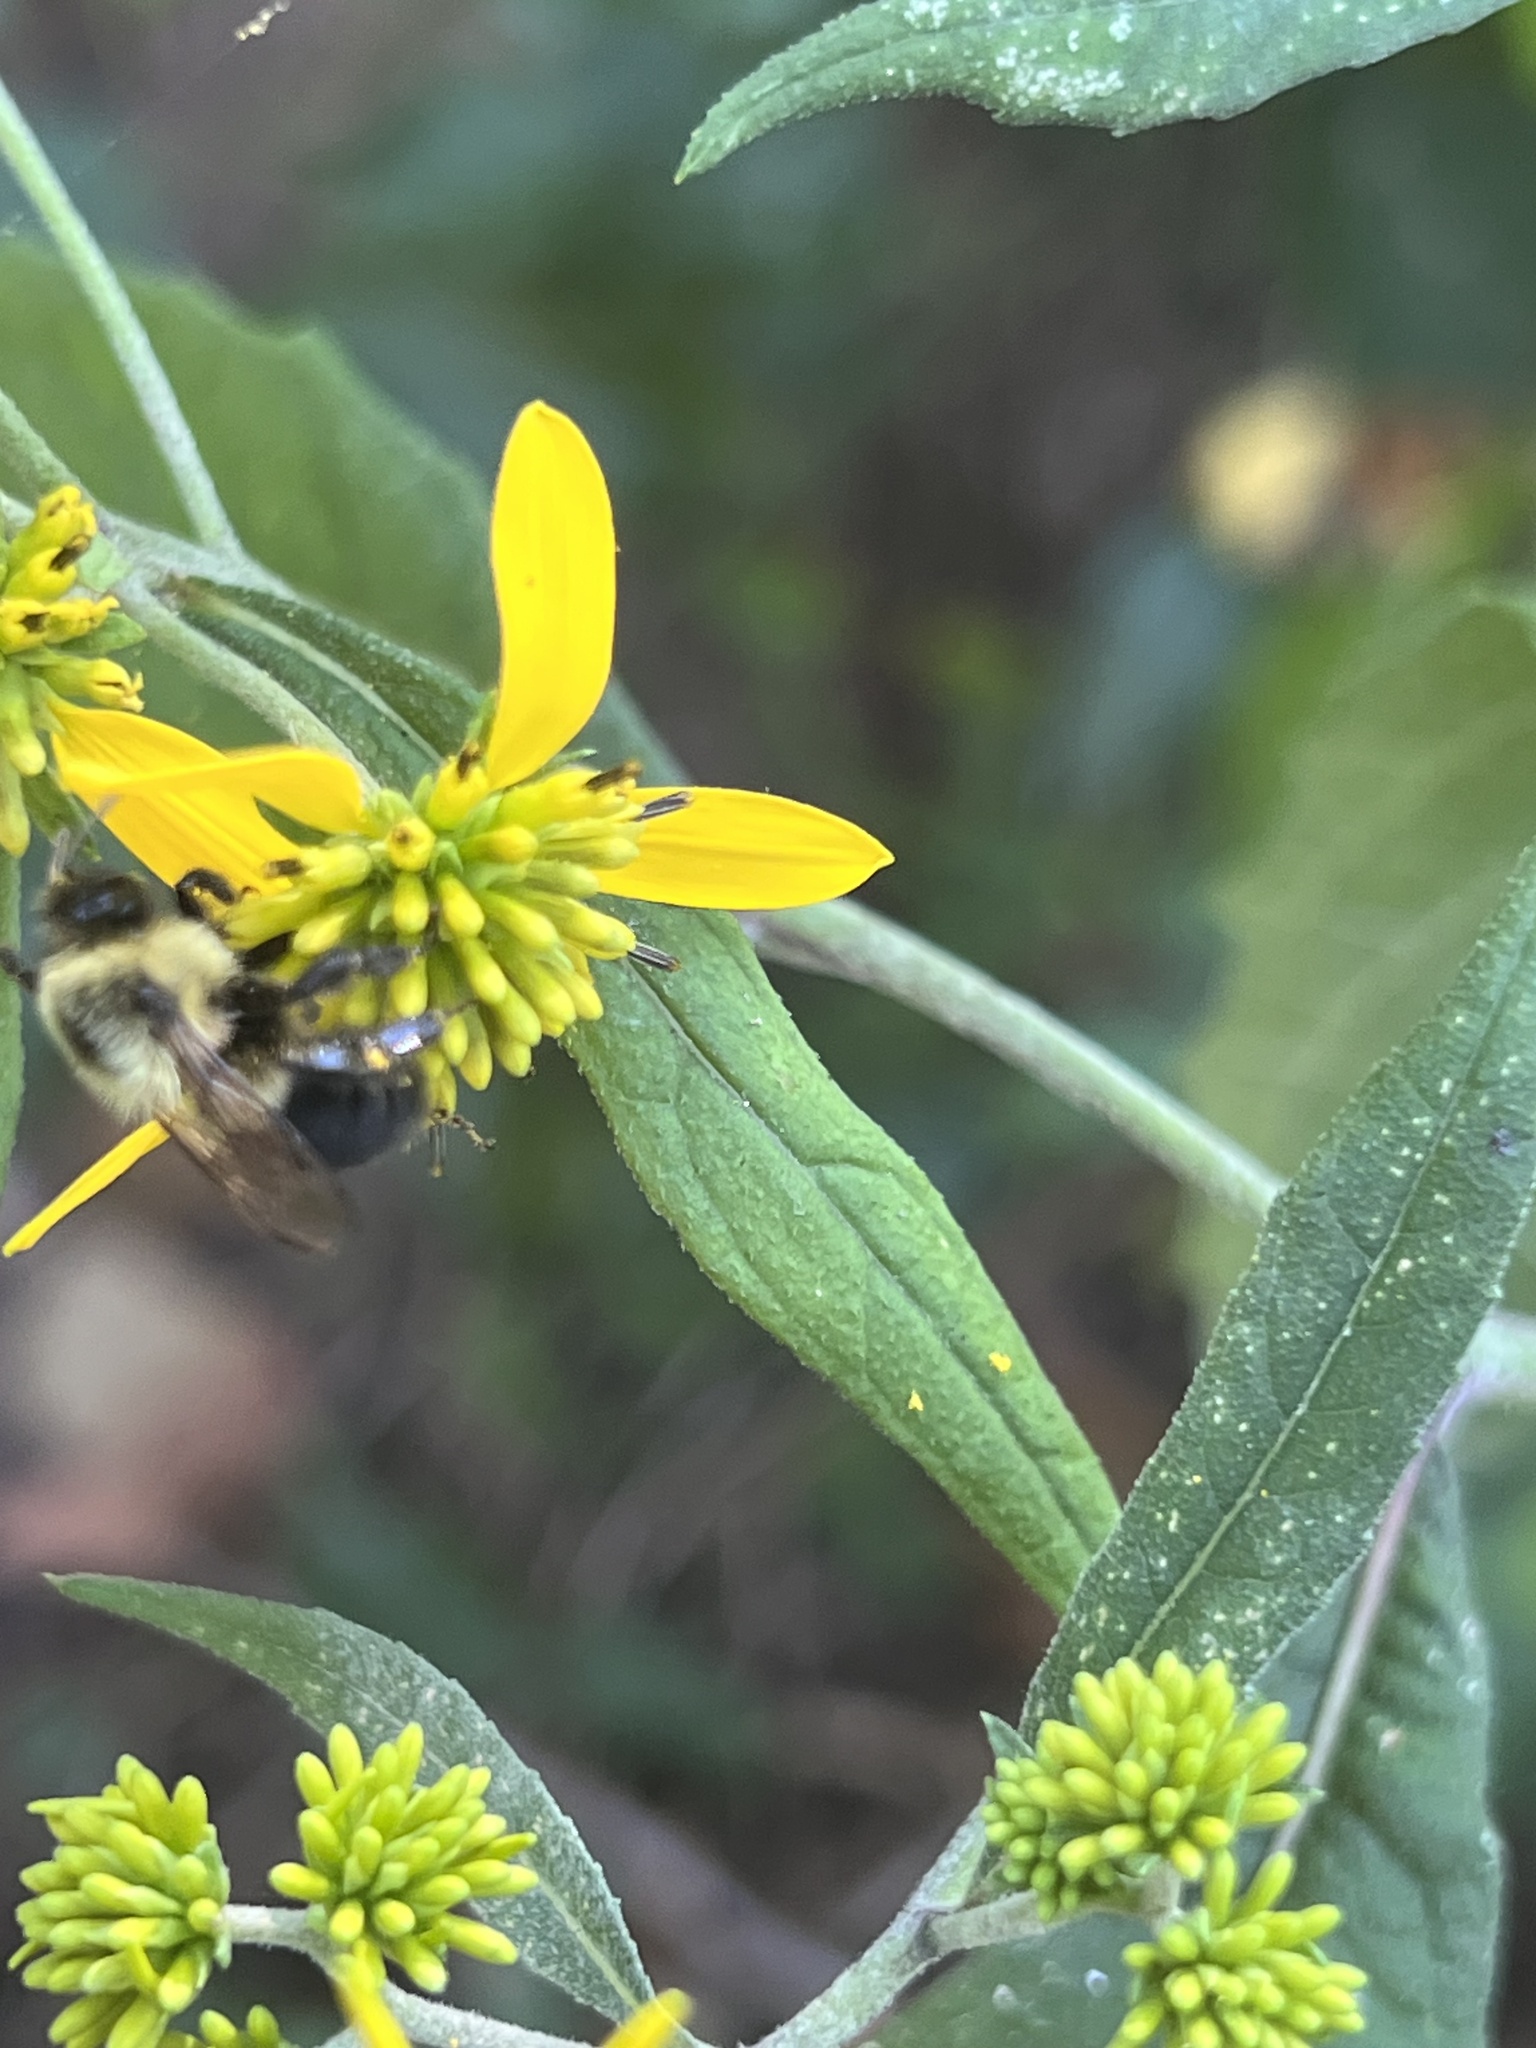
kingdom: Animalia
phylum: Arthropoda
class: Insecta
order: Hymenoptera
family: Apidae
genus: Bombus
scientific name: Bombus impatiens
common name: Common eastern bumble bee
